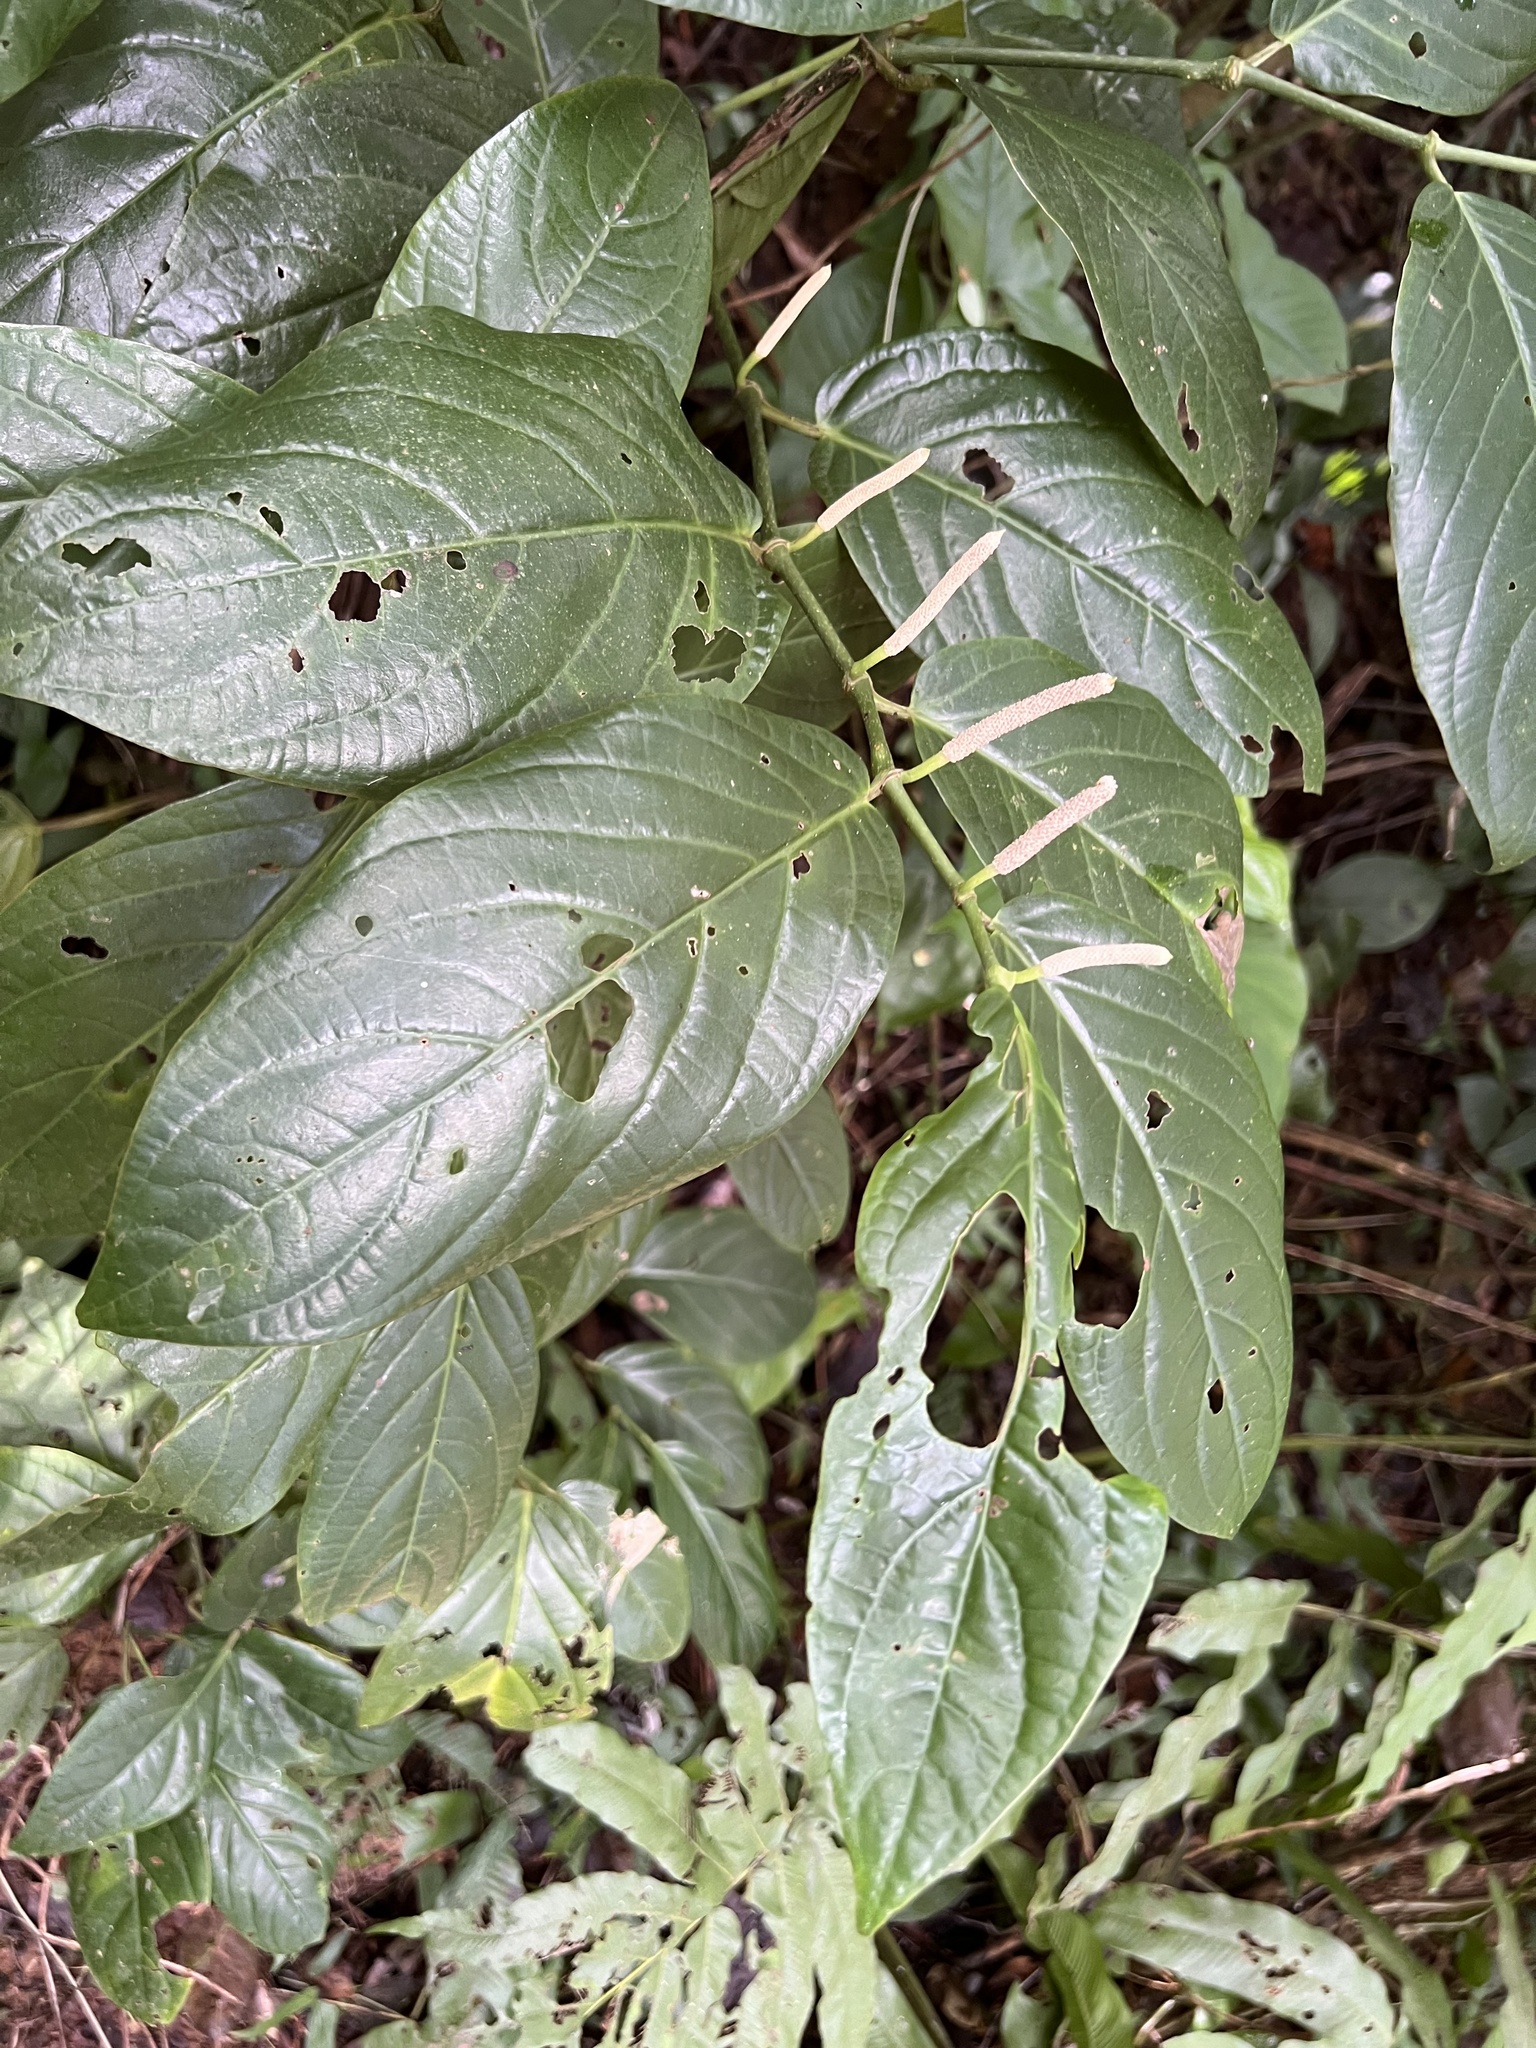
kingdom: Plantae
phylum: Tracheophyta
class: Magnoliopsida
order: Piperales
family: Piperaceae
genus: Piper
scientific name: Piper glabrescens
